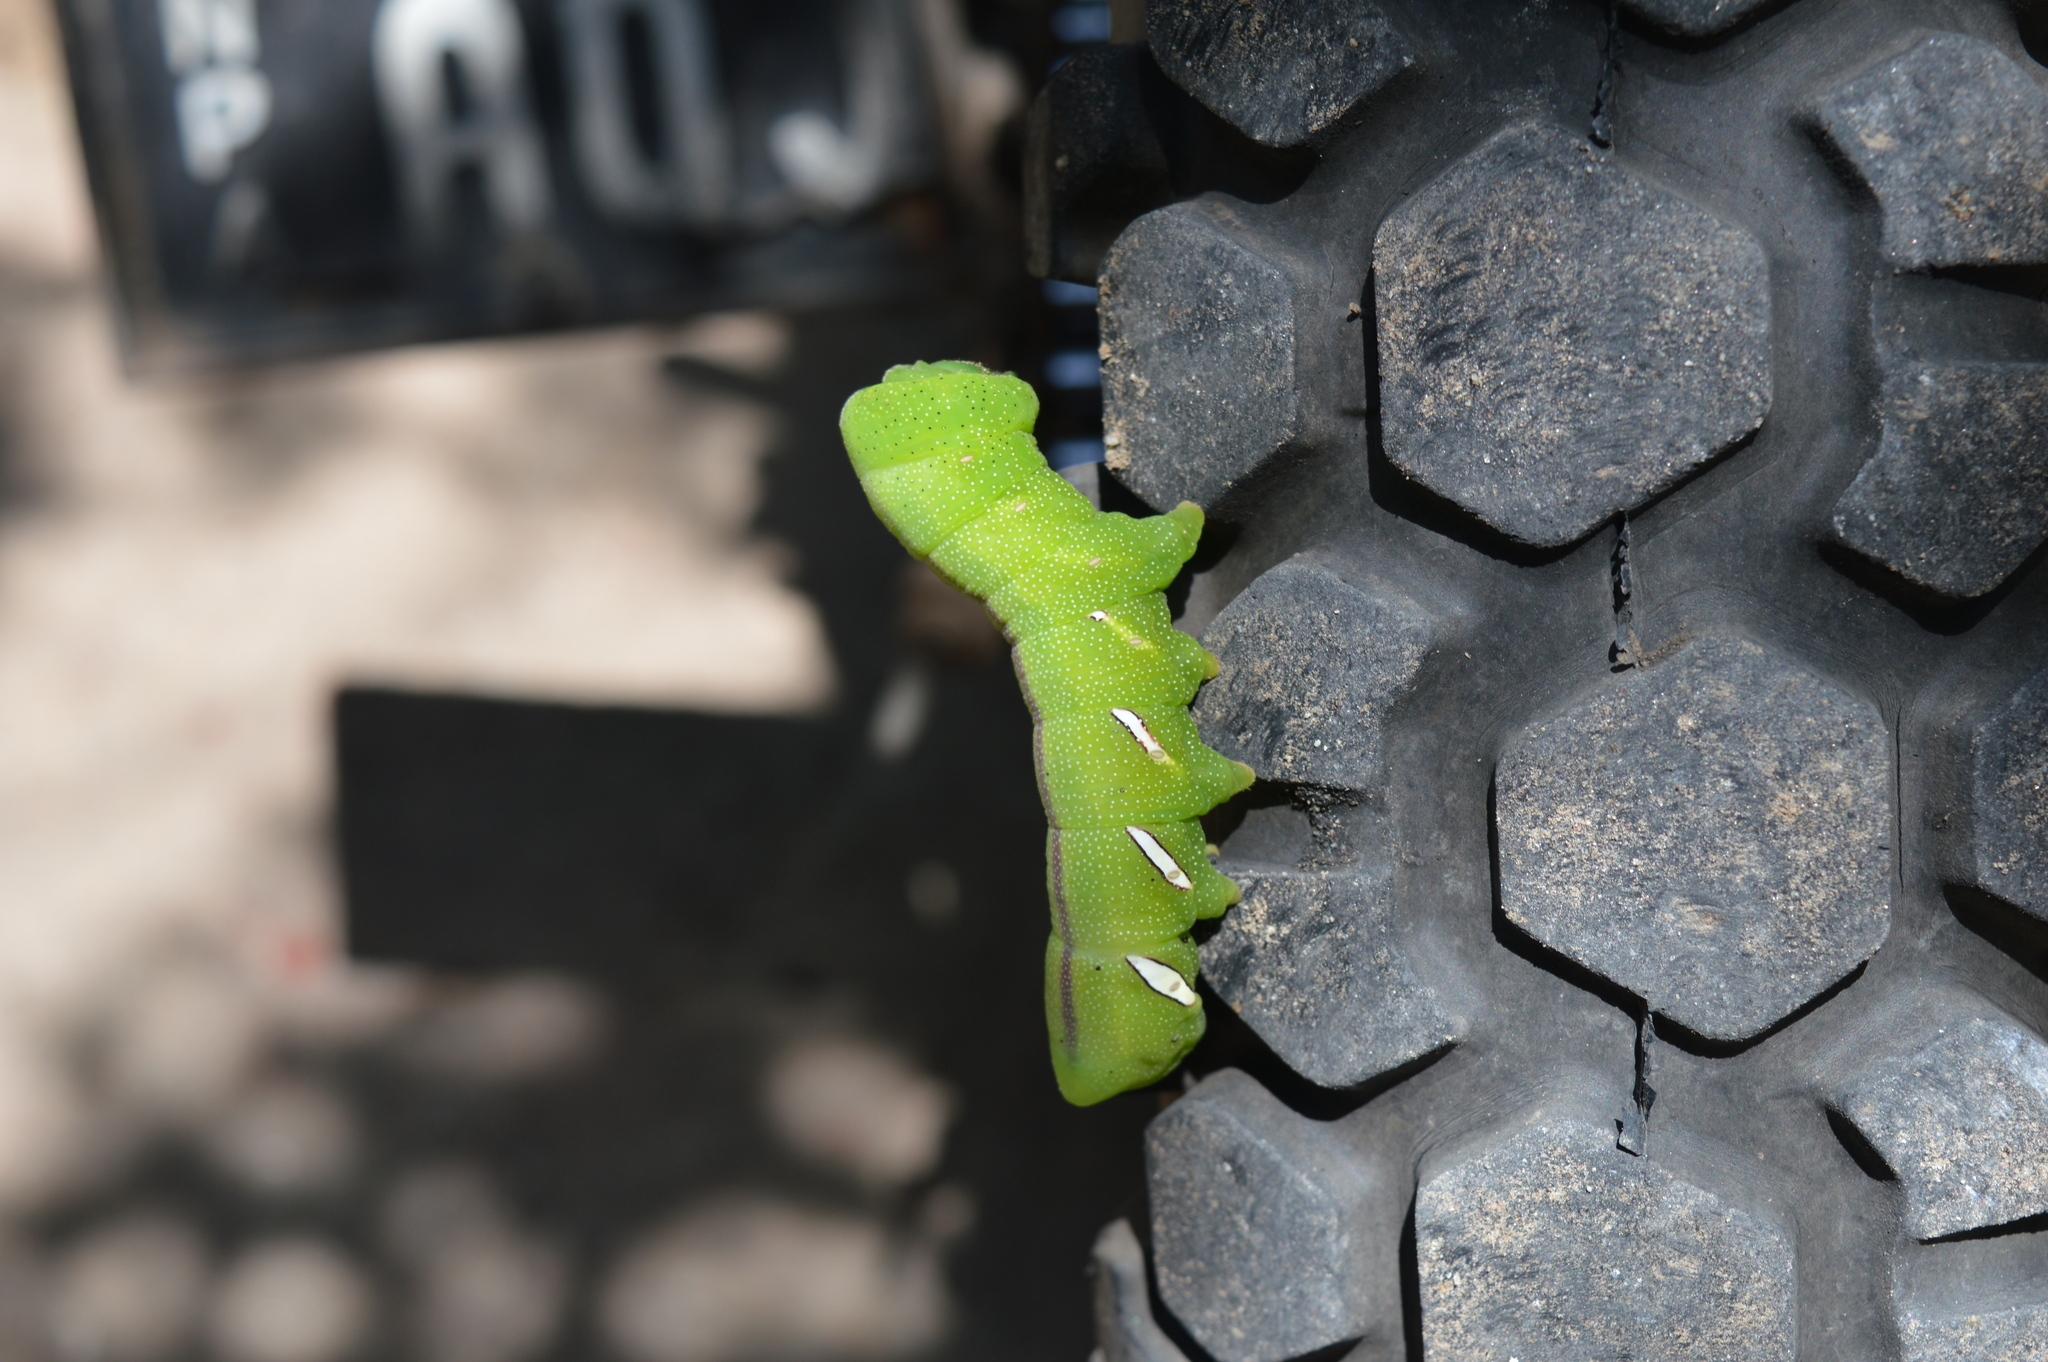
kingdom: Animalia
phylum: Arthropoda
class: Insecta
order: Lepidoptera
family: Sphingidae
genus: Eumorpha
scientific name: Eumorpha analis
